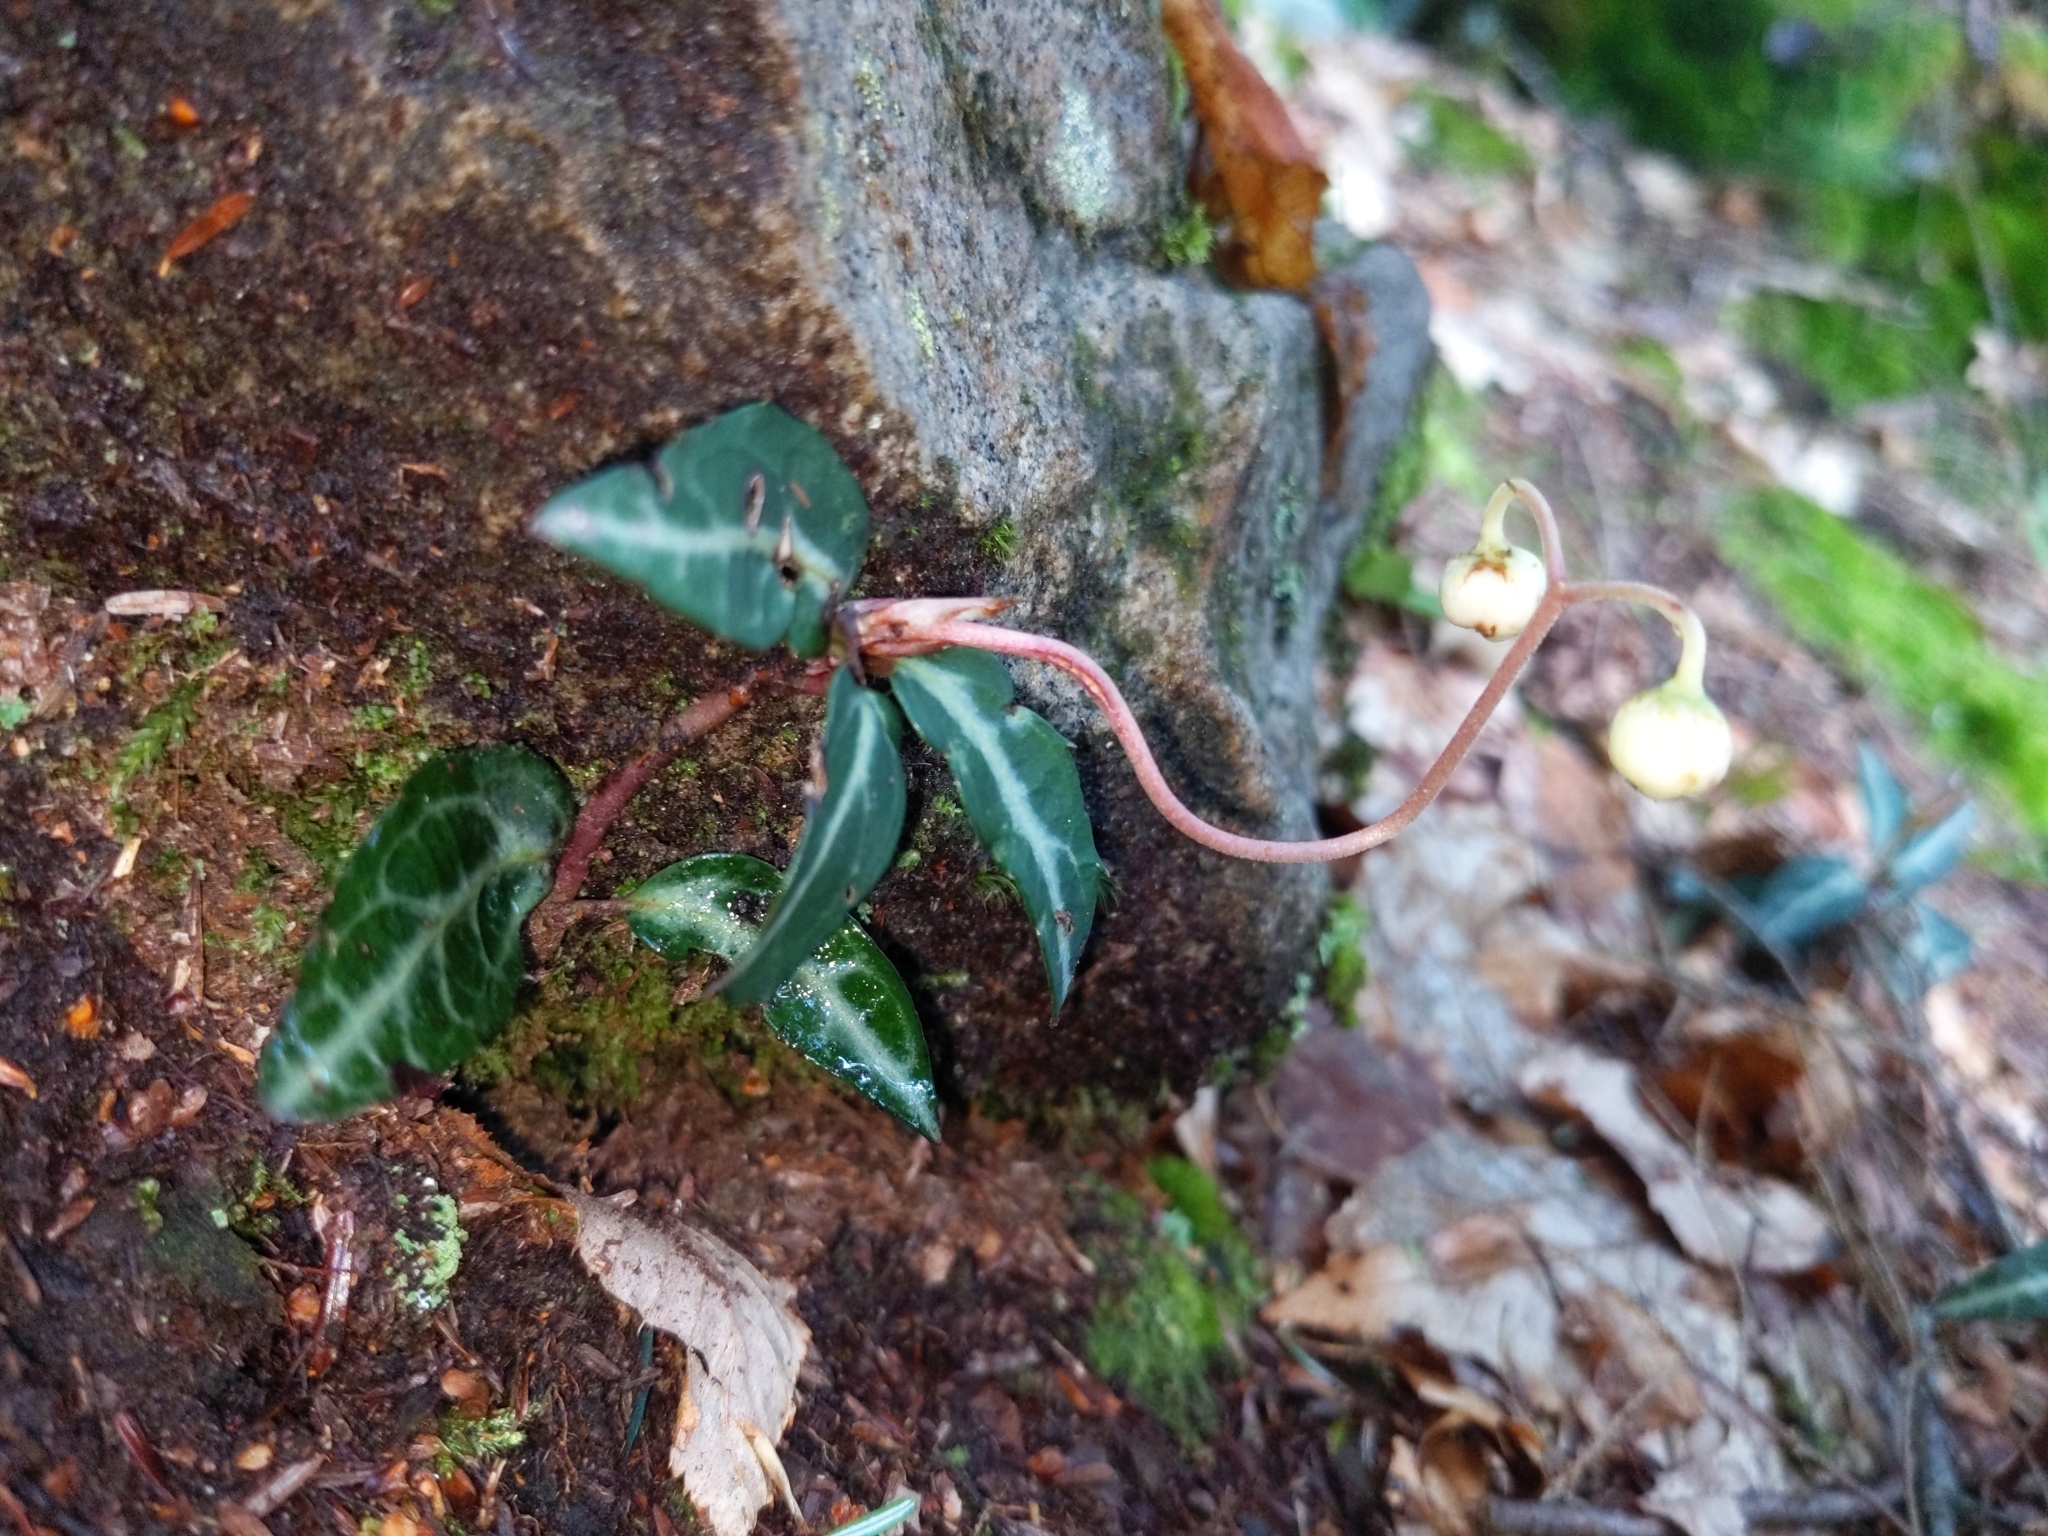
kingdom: Plantae
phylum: Tracheophyta
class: Magnoliopsida
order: Ericales
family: Ericaceae
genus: Chimaphila
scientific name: Chimaphila maculata
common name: Spotted pipsissewa
